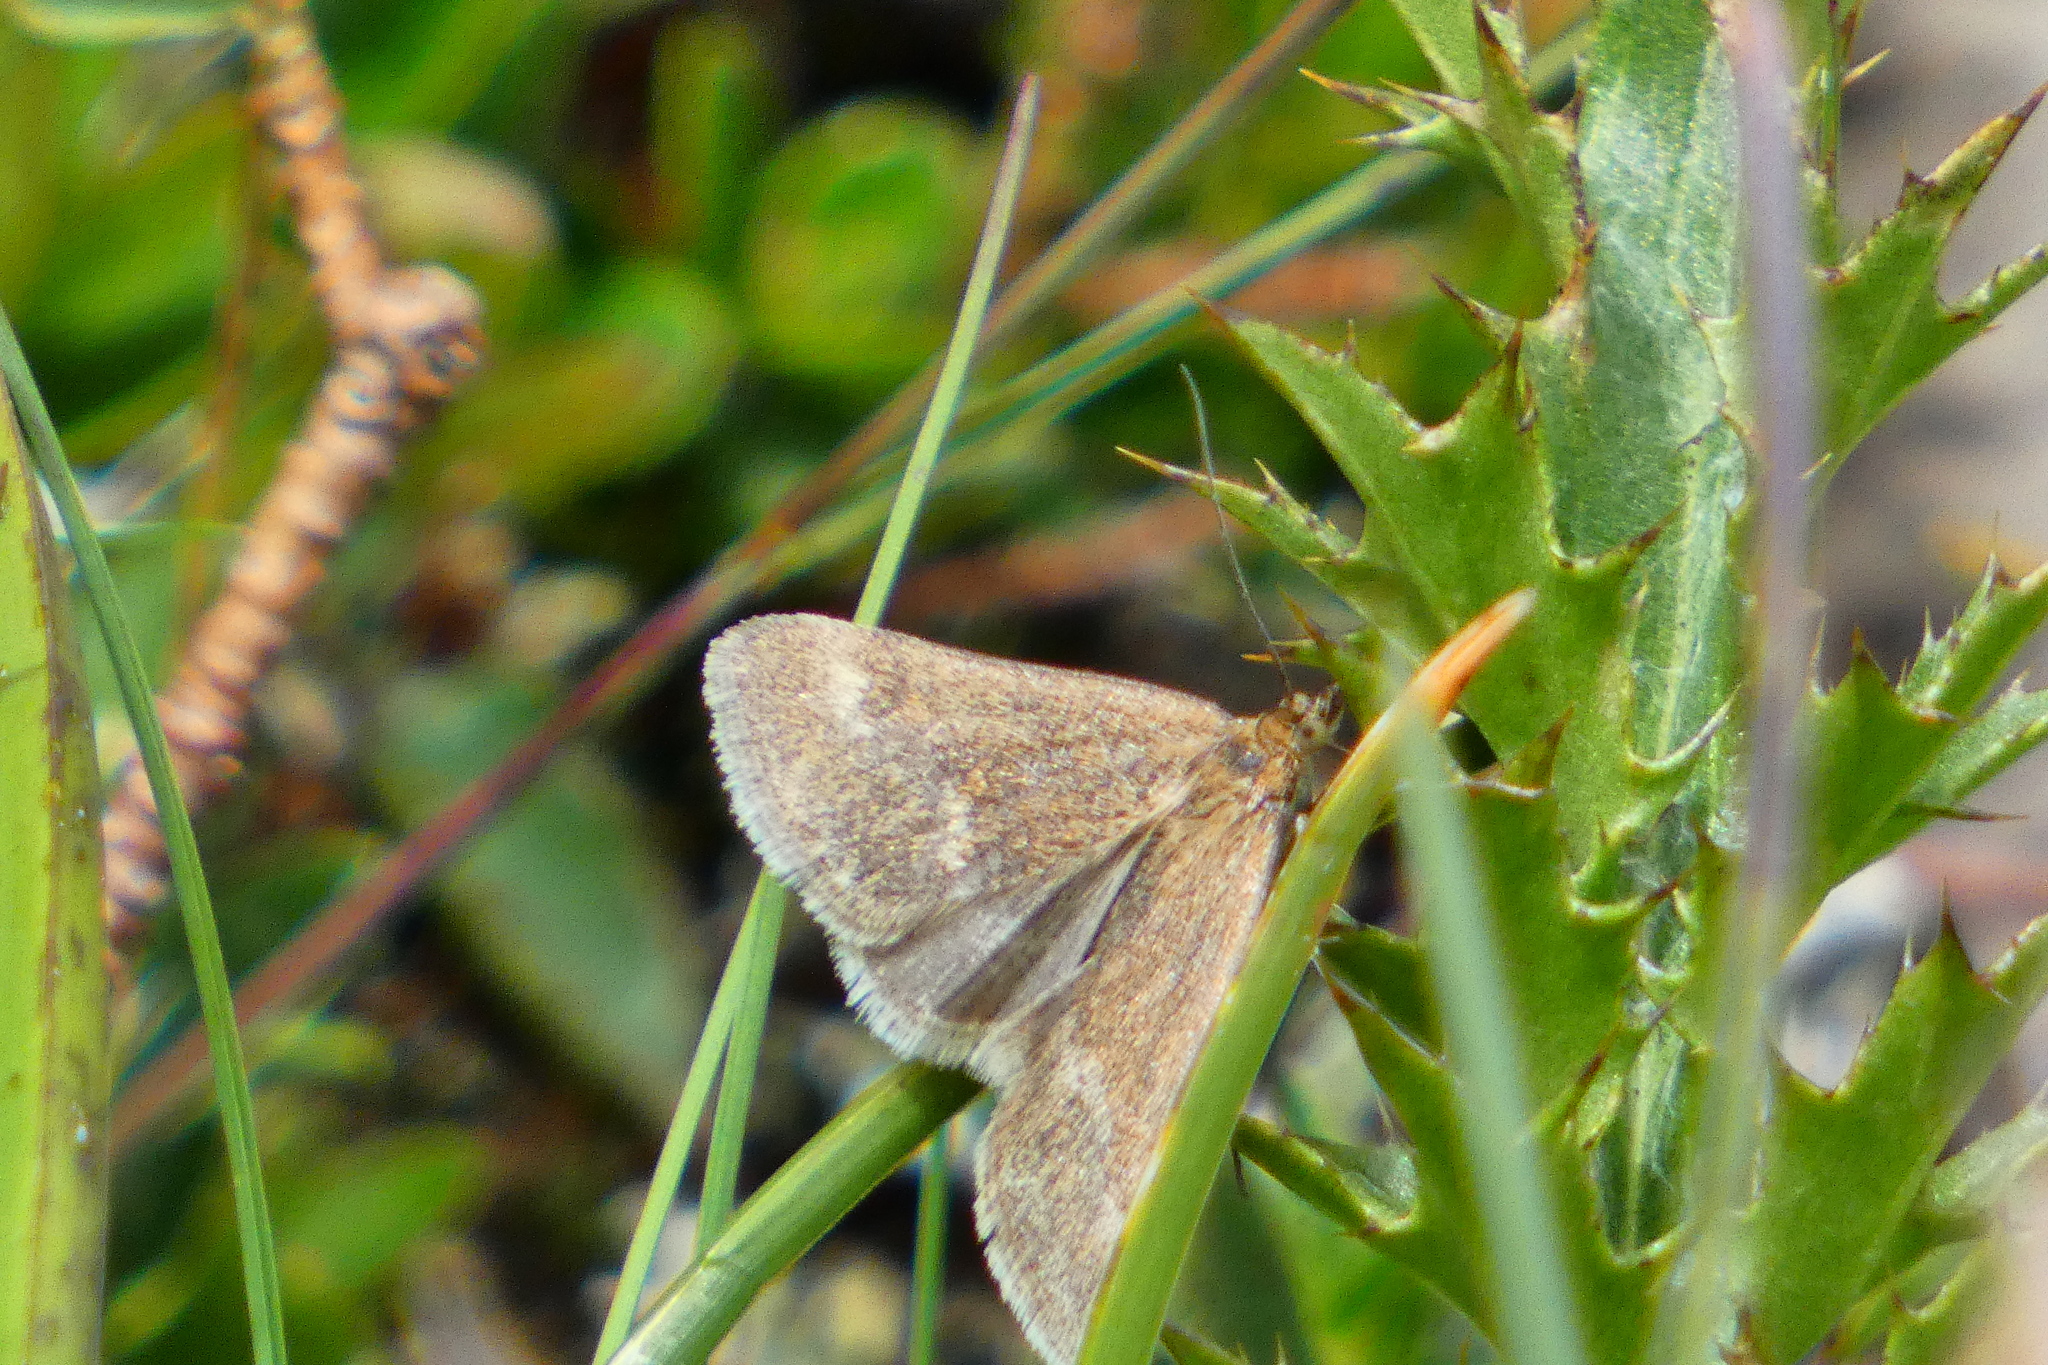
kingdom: Animalia
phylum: Arthropoda
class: Insecta
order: Lepidoptera
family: Crambidae
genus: Pyrausta
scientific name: Pyrausta aerealis
